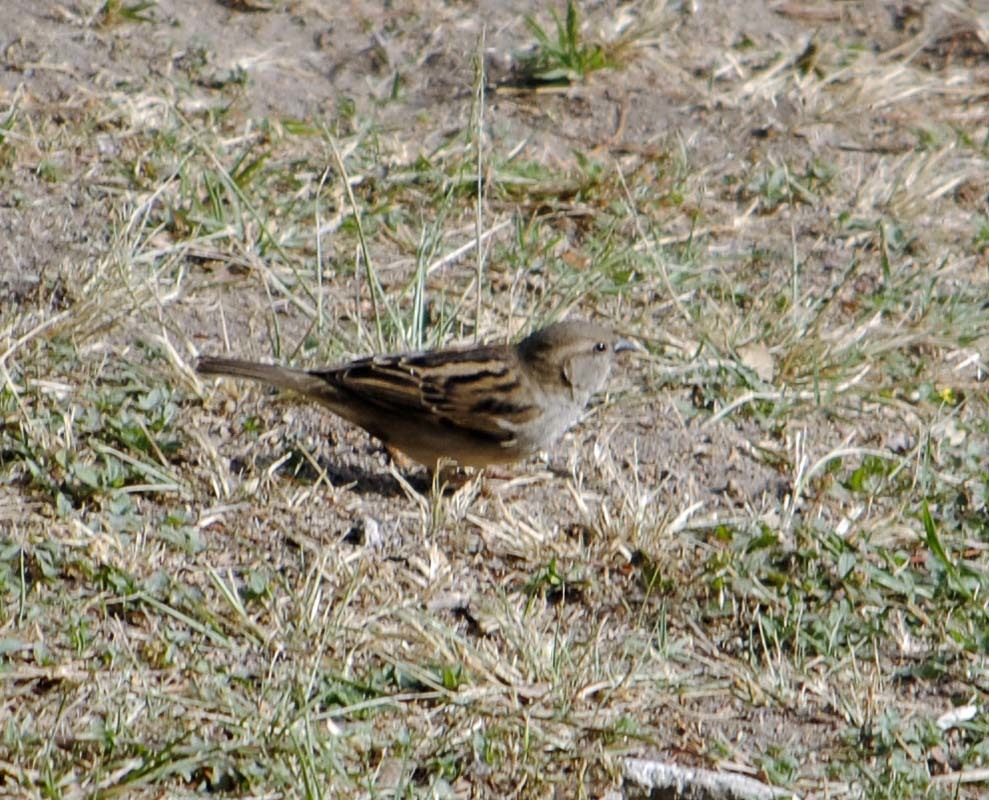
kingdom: Animalia
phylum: Chordata
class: Aves
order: Passeriformes
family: Passeridae
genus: Passer
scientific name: Passer domesticus
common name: House sparrow
